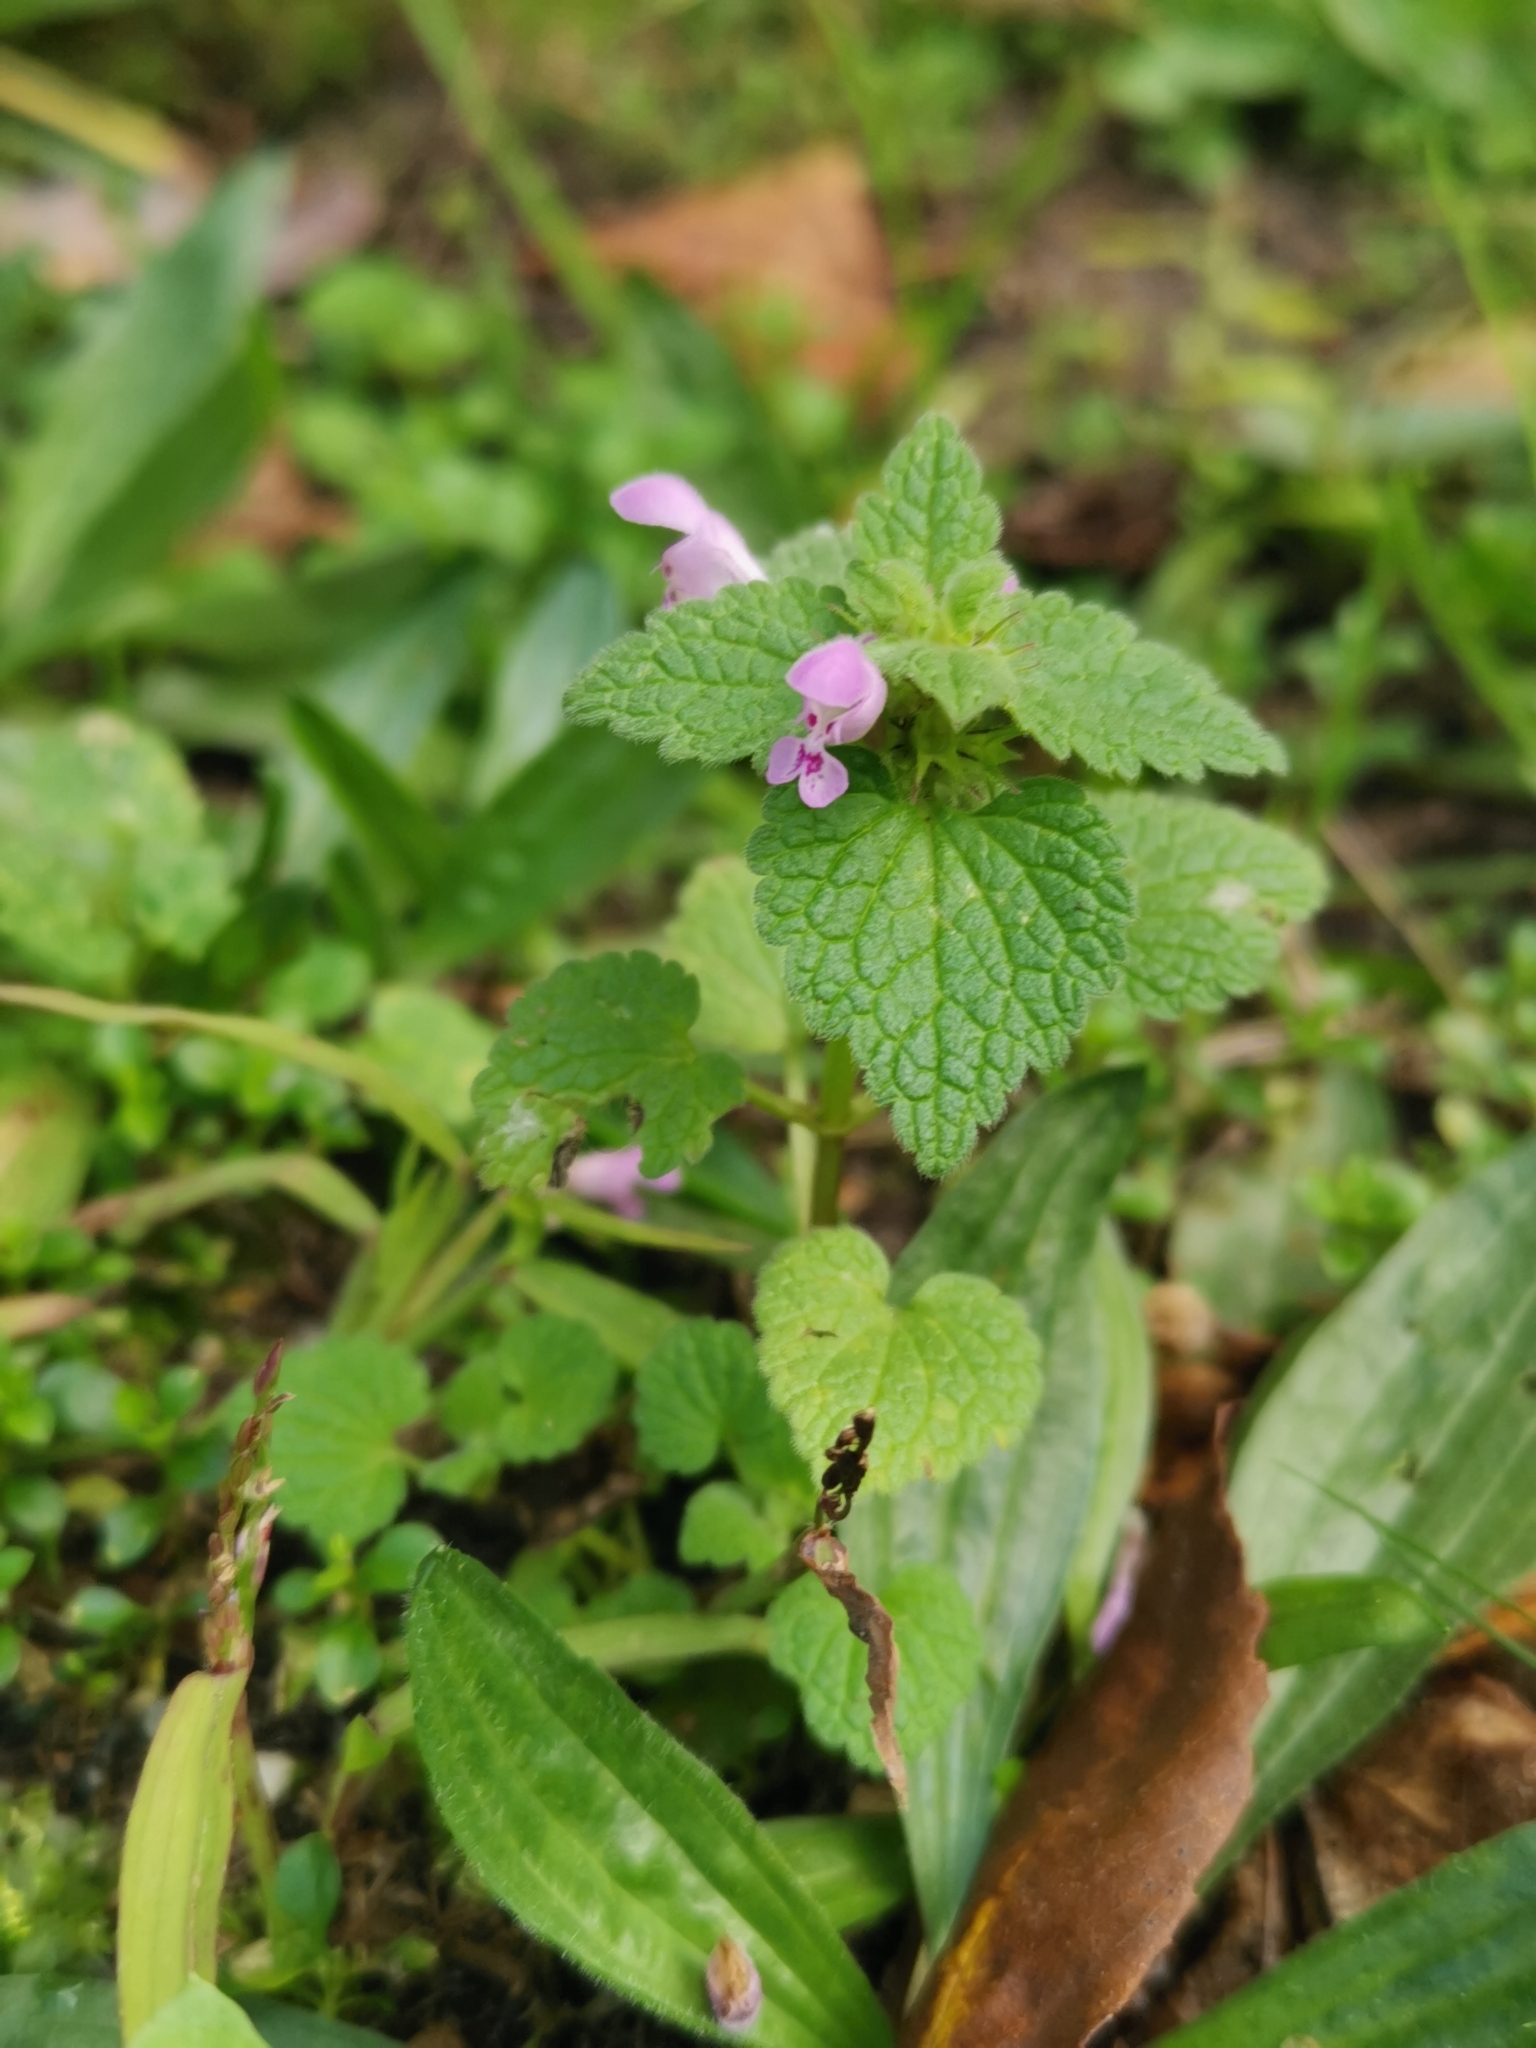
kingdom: Plantae
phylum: Tracheophyta
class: Magnoliopsida
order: Lamiales
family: Lamiaceae
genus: Lamium
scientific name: Lamium purpureum
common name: Red dead-nettle
